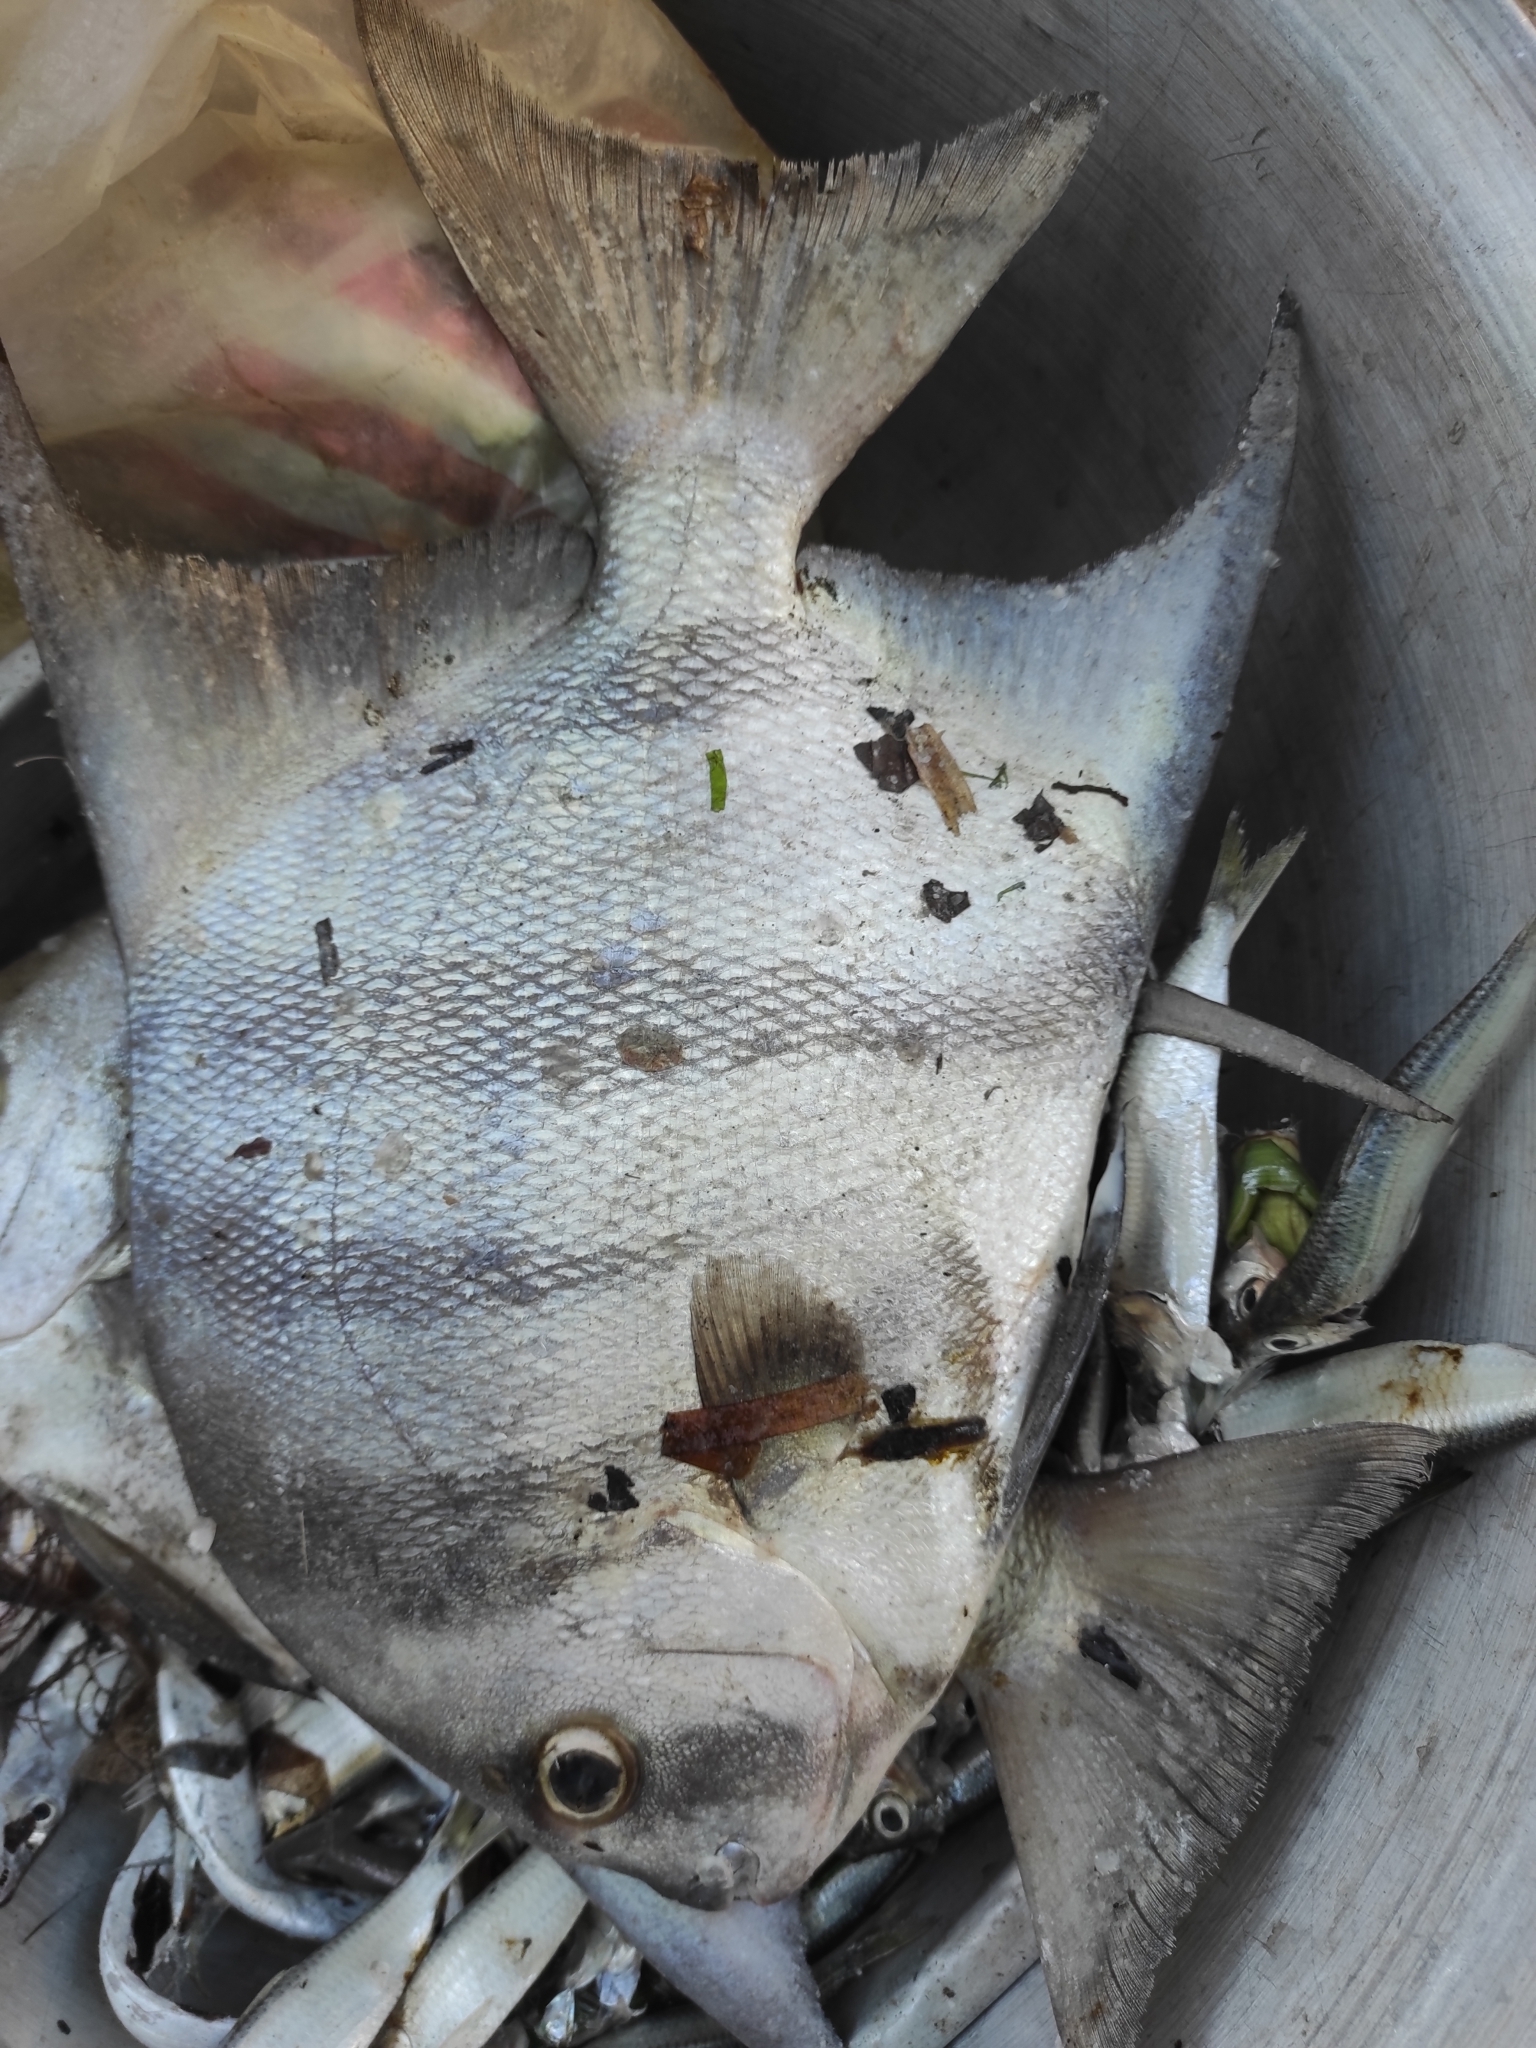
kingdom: Animalia
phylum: Chordata
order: Perciformes
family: Ephippidae
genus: Chaetodipterus
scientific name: Chaetodipterus faber
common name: Ocean cobbler
